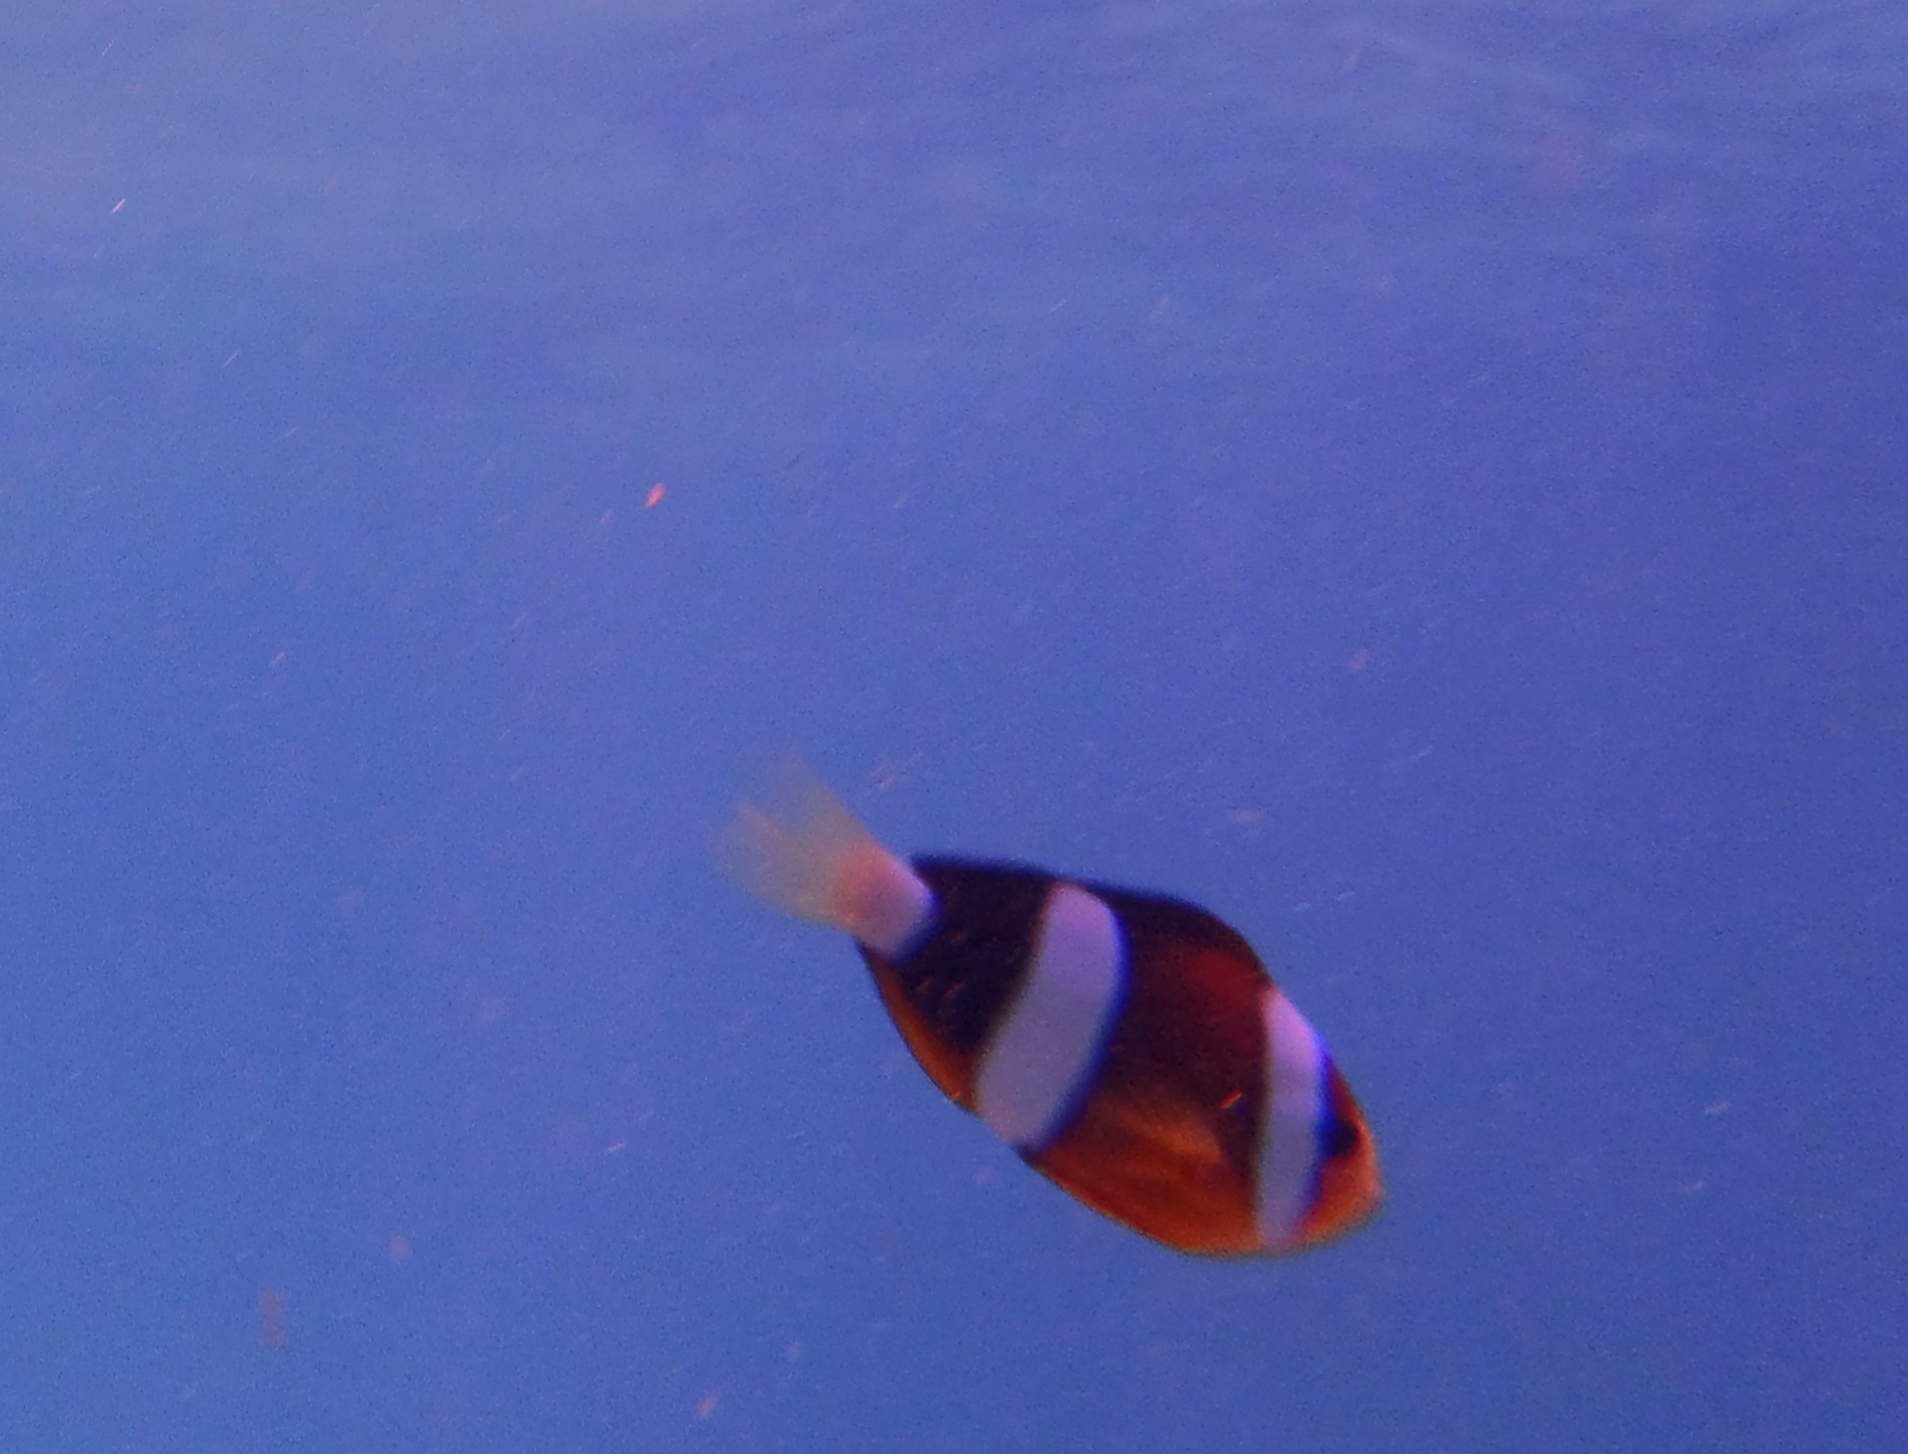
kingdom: Animalia
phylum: Chordata
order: Perciformes
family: Pomacentridae
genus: Amphiprion
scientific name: Amphiprion clarkii
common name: Clark's anemonefish
